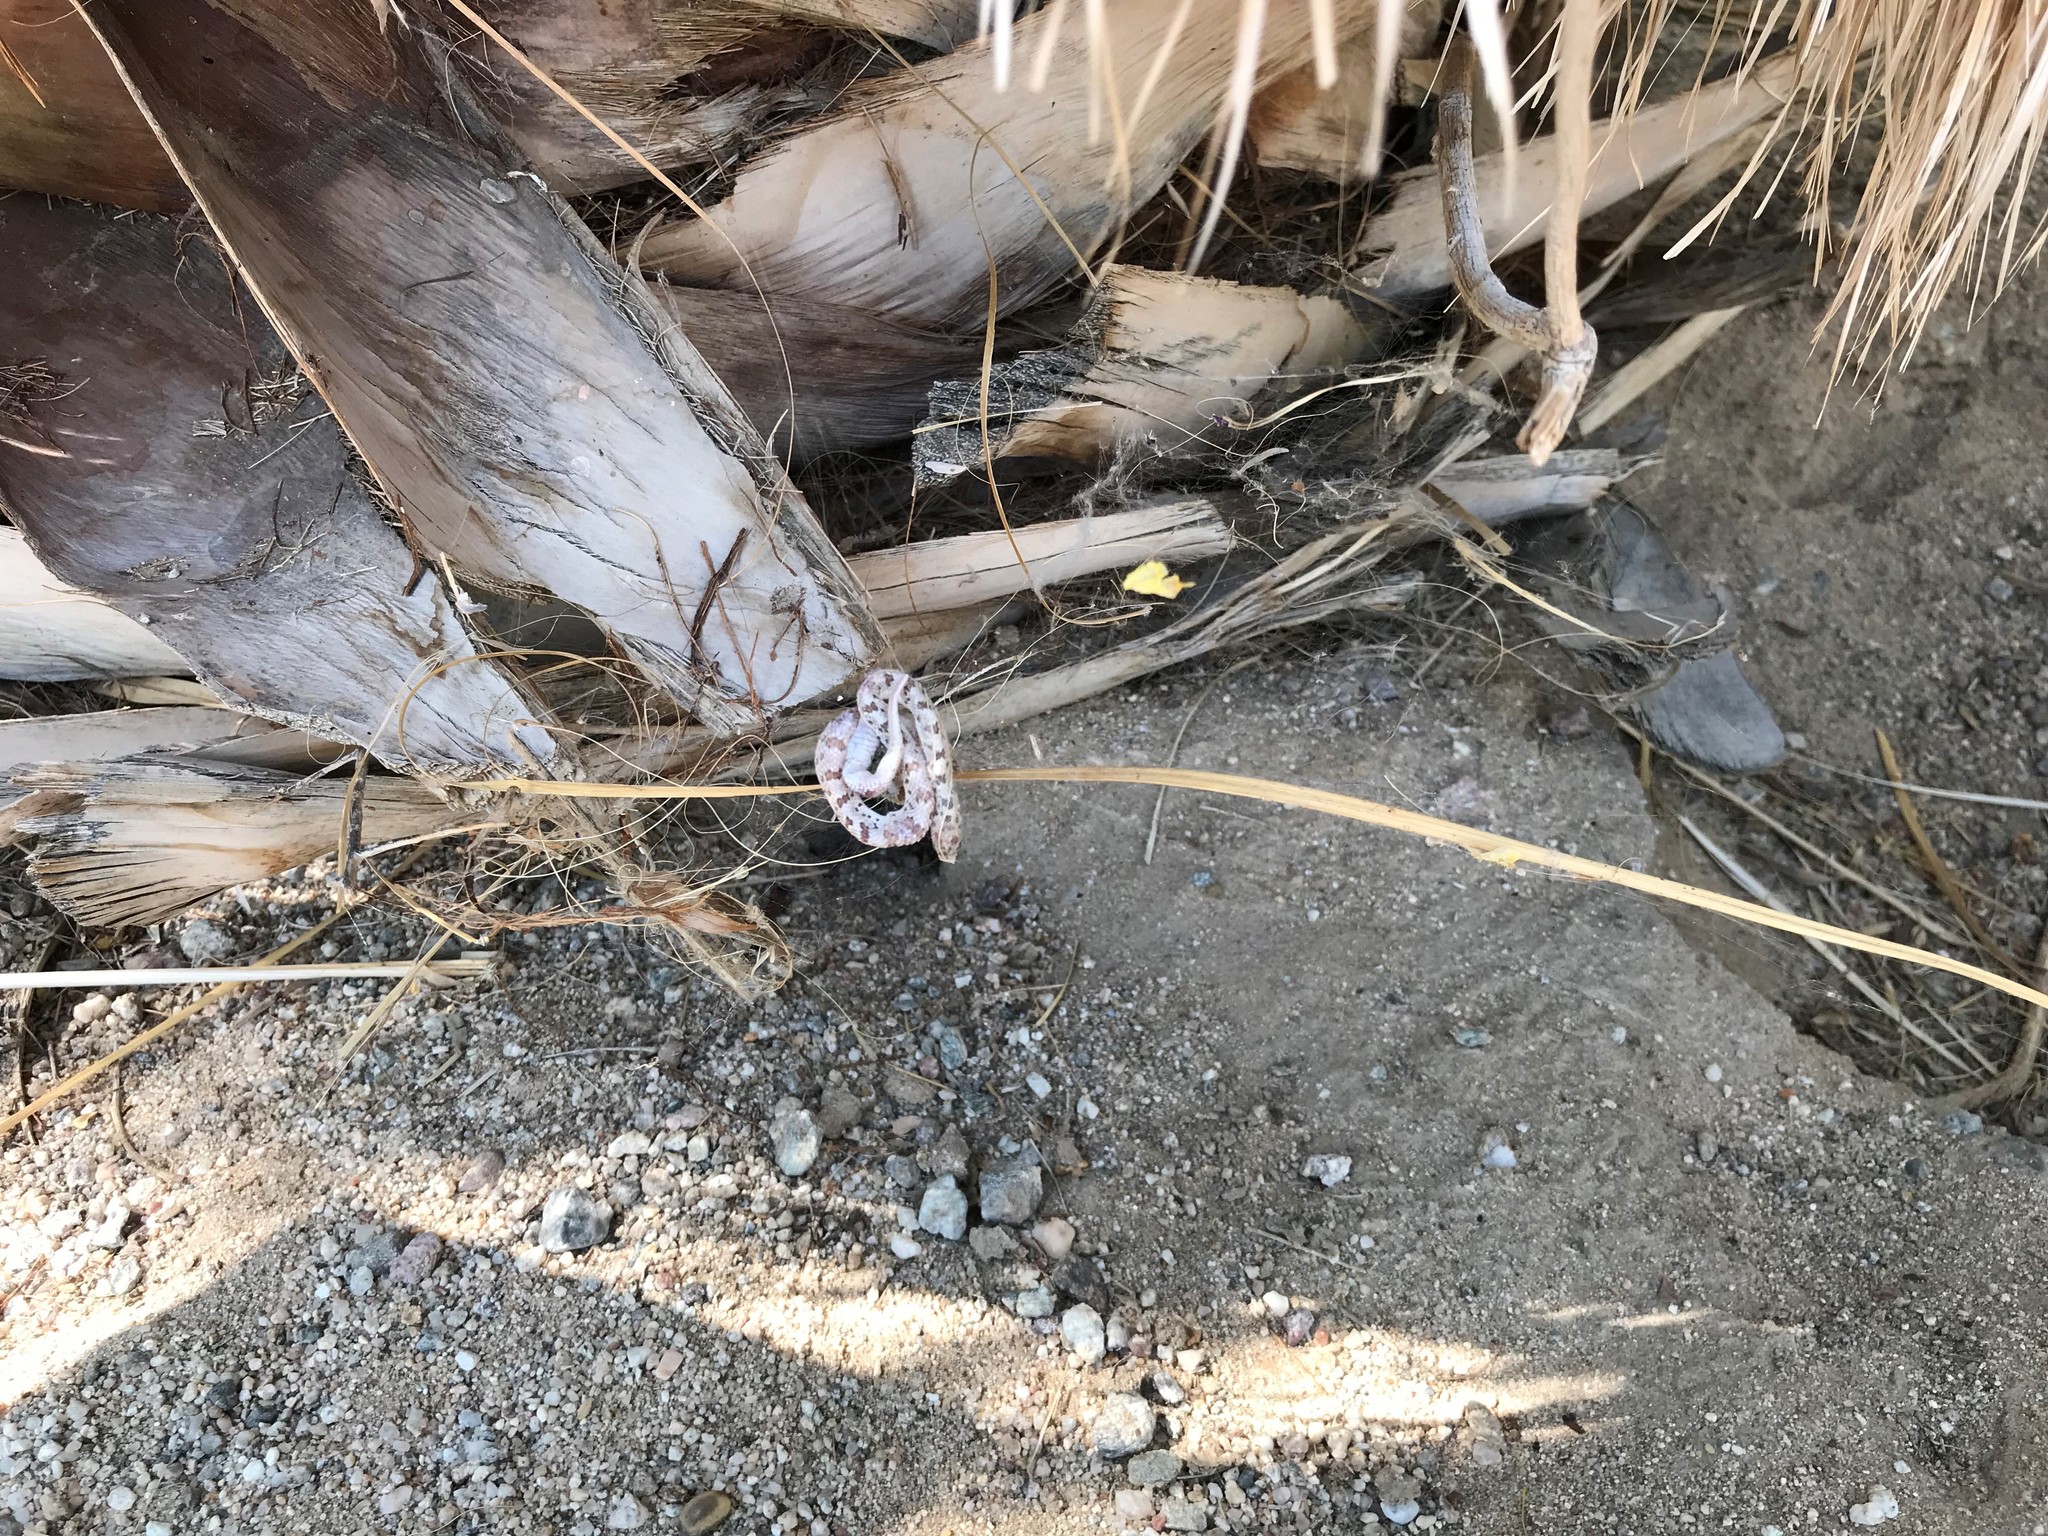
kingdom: Animalia
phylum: Chordata
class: Squamata
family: Colubridae
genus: Phyllorhynchus
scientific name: Phyllorhynchus decurtatus
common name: Spotted leafnose snake
